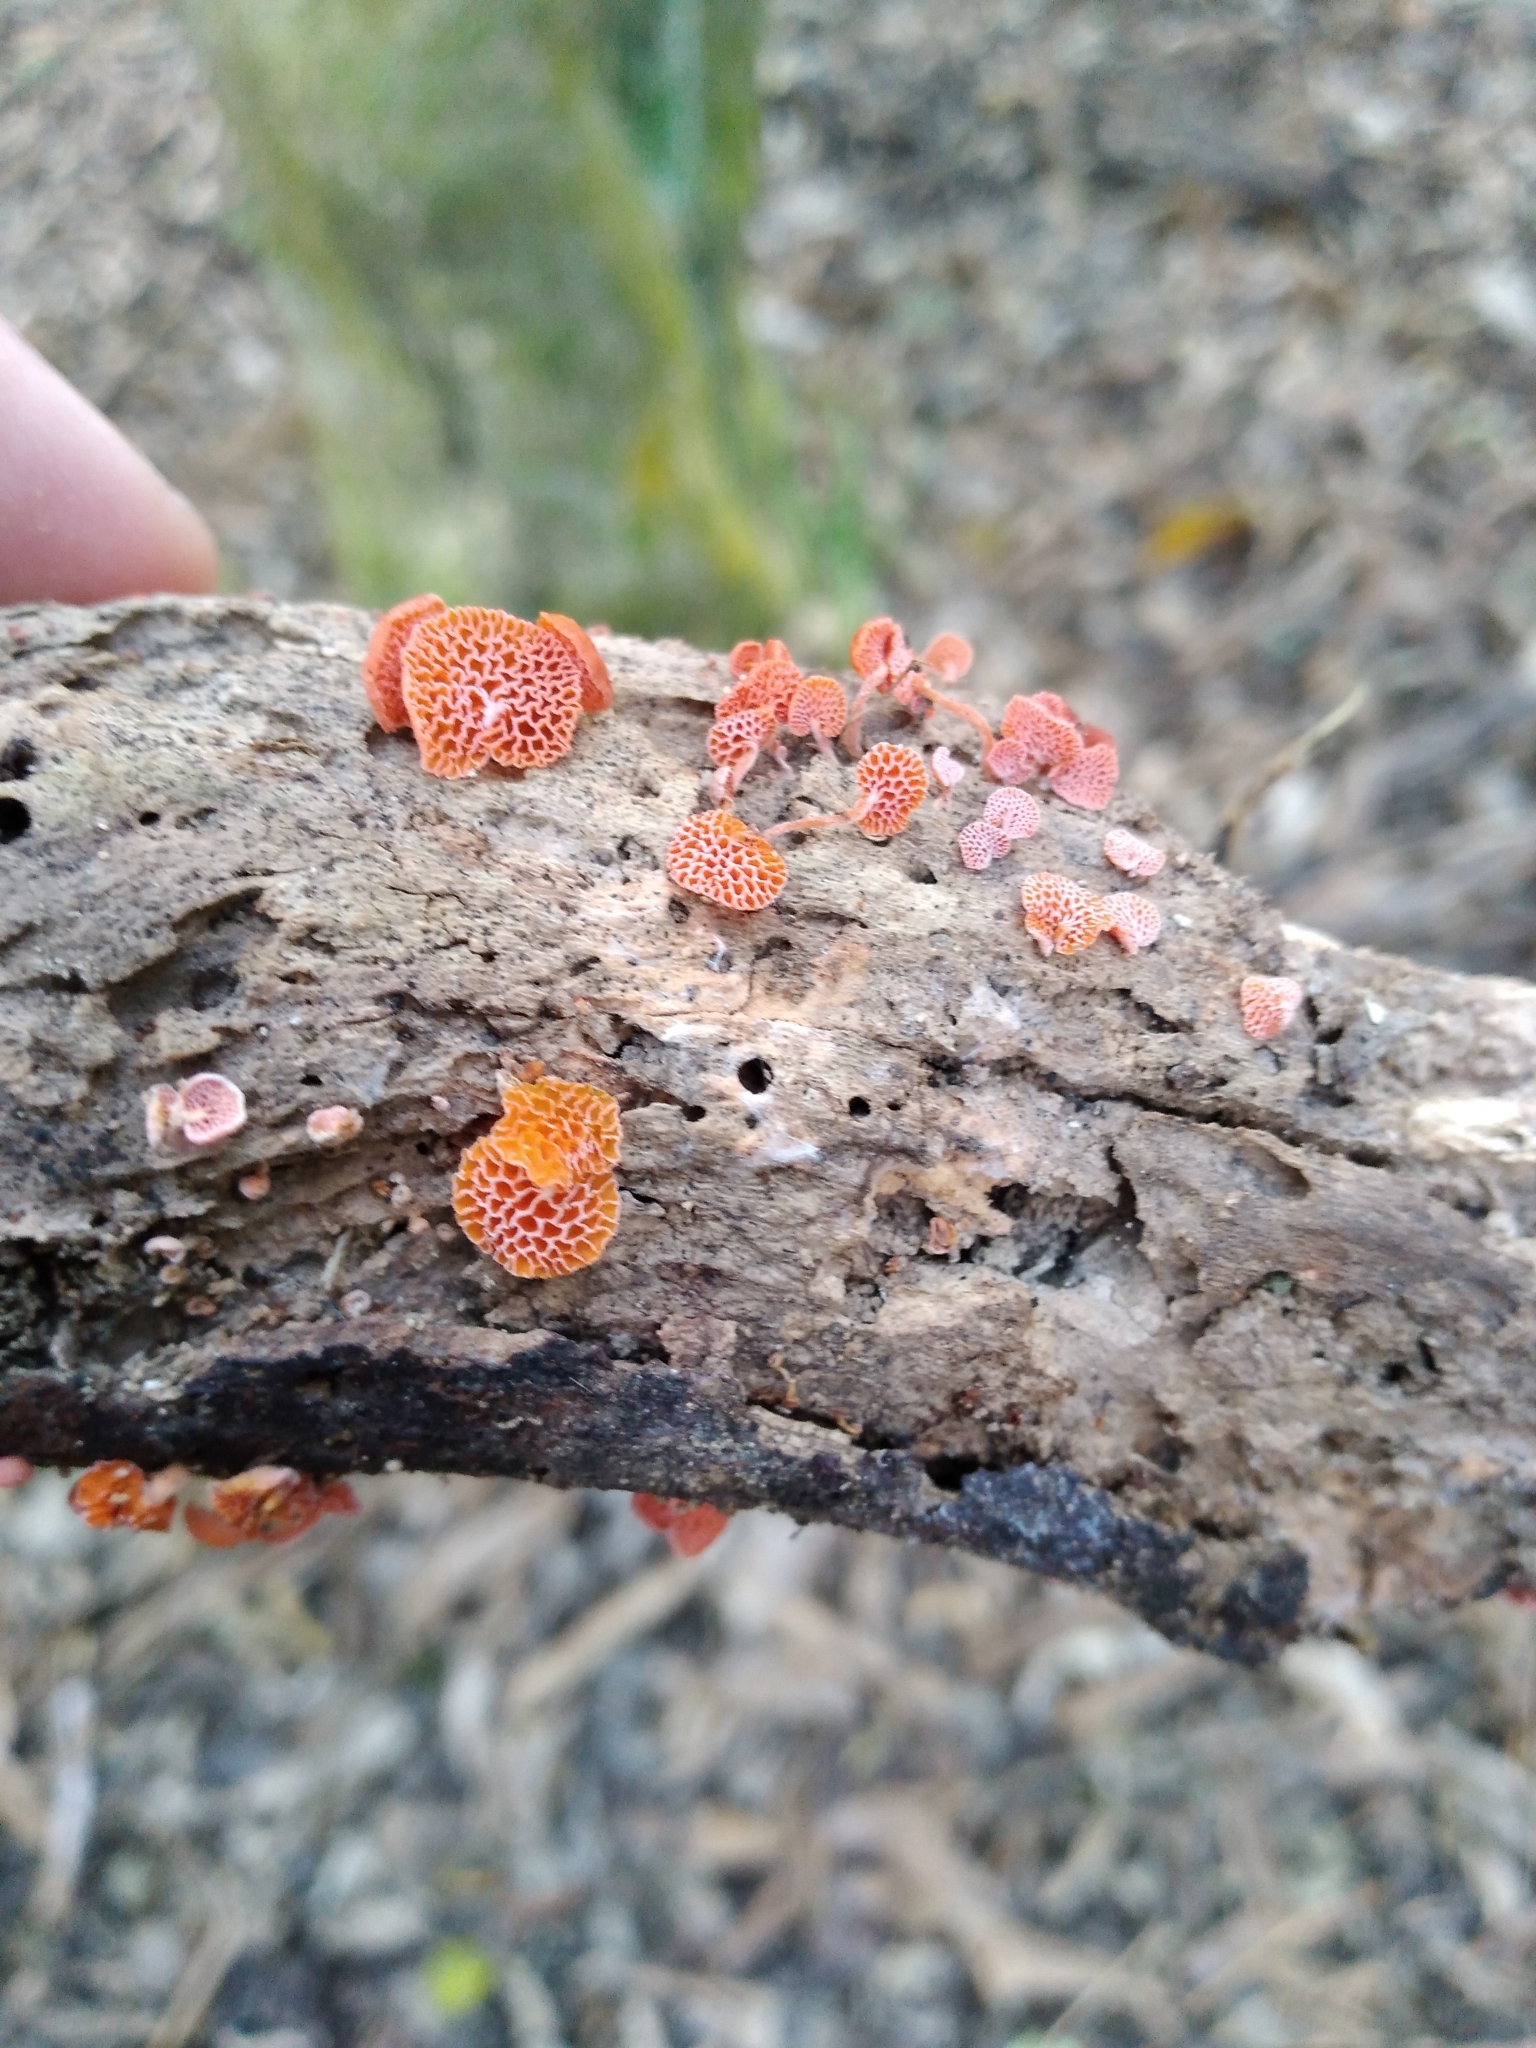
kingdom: Fungi
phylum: Basidiomycota
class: Agaricomycetes
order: Agaricales
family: Mycenaceae
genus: Favolaschia
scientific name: Favolaschia claudopus
